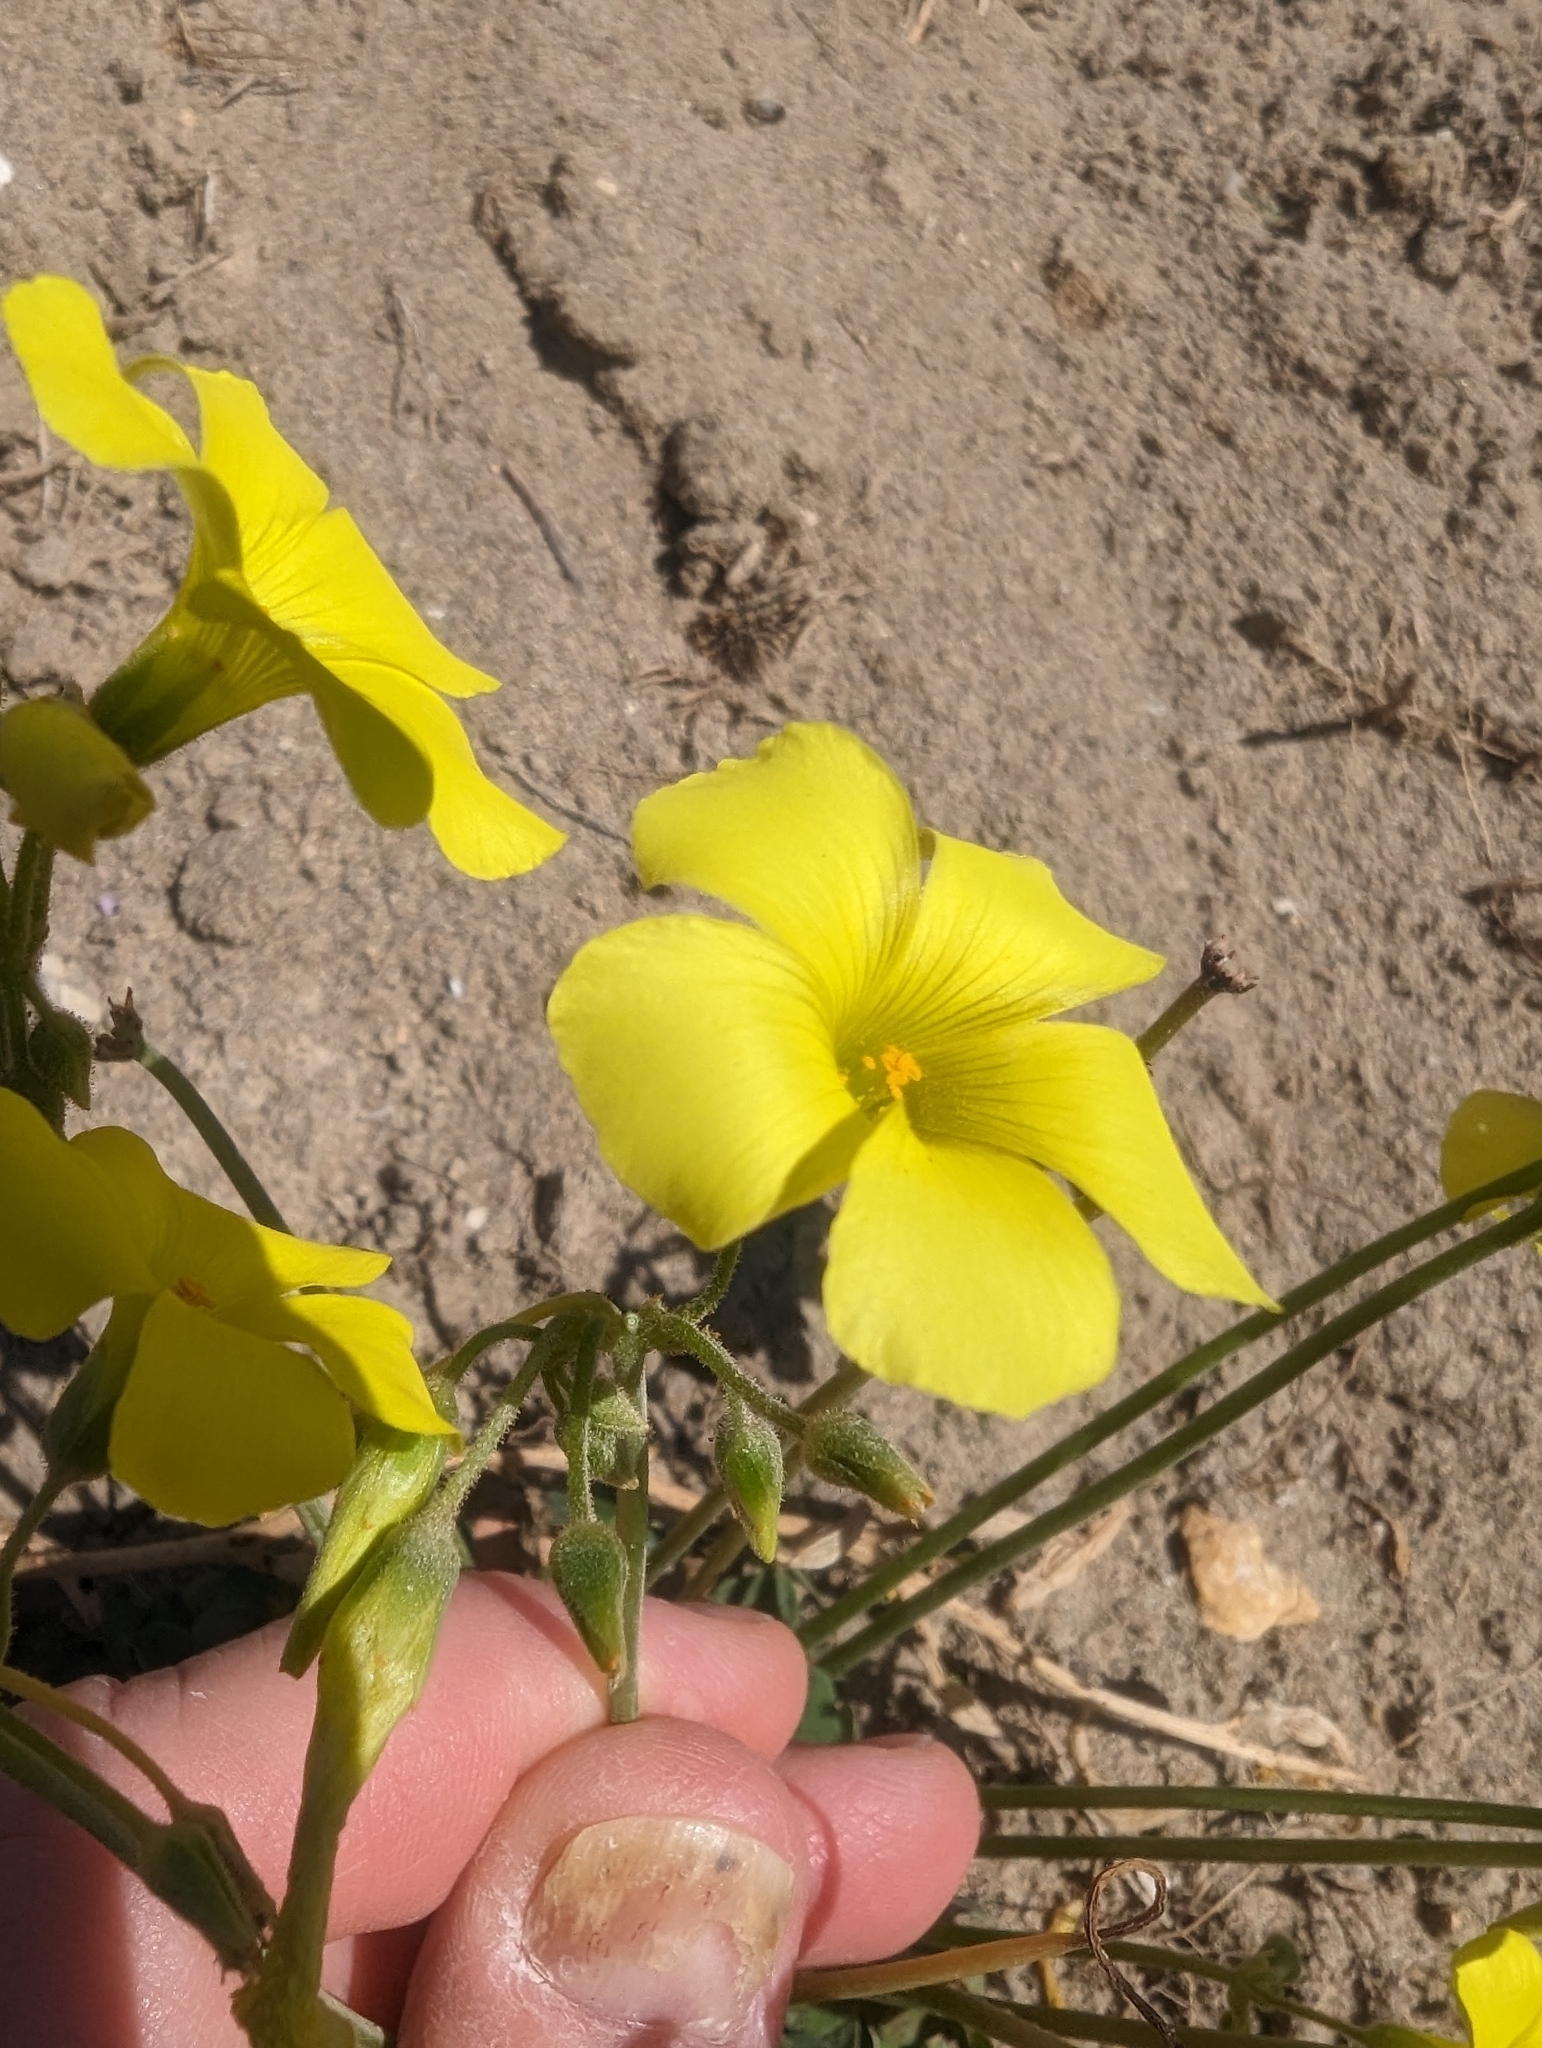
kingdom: Plantae
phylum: Tracheophyta
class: Magnoliopsida
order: Oxalidales
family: Oxalidaceae
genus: Oxalis
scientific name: Oxalis pes-caprae
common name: Bermuda-buttercup
